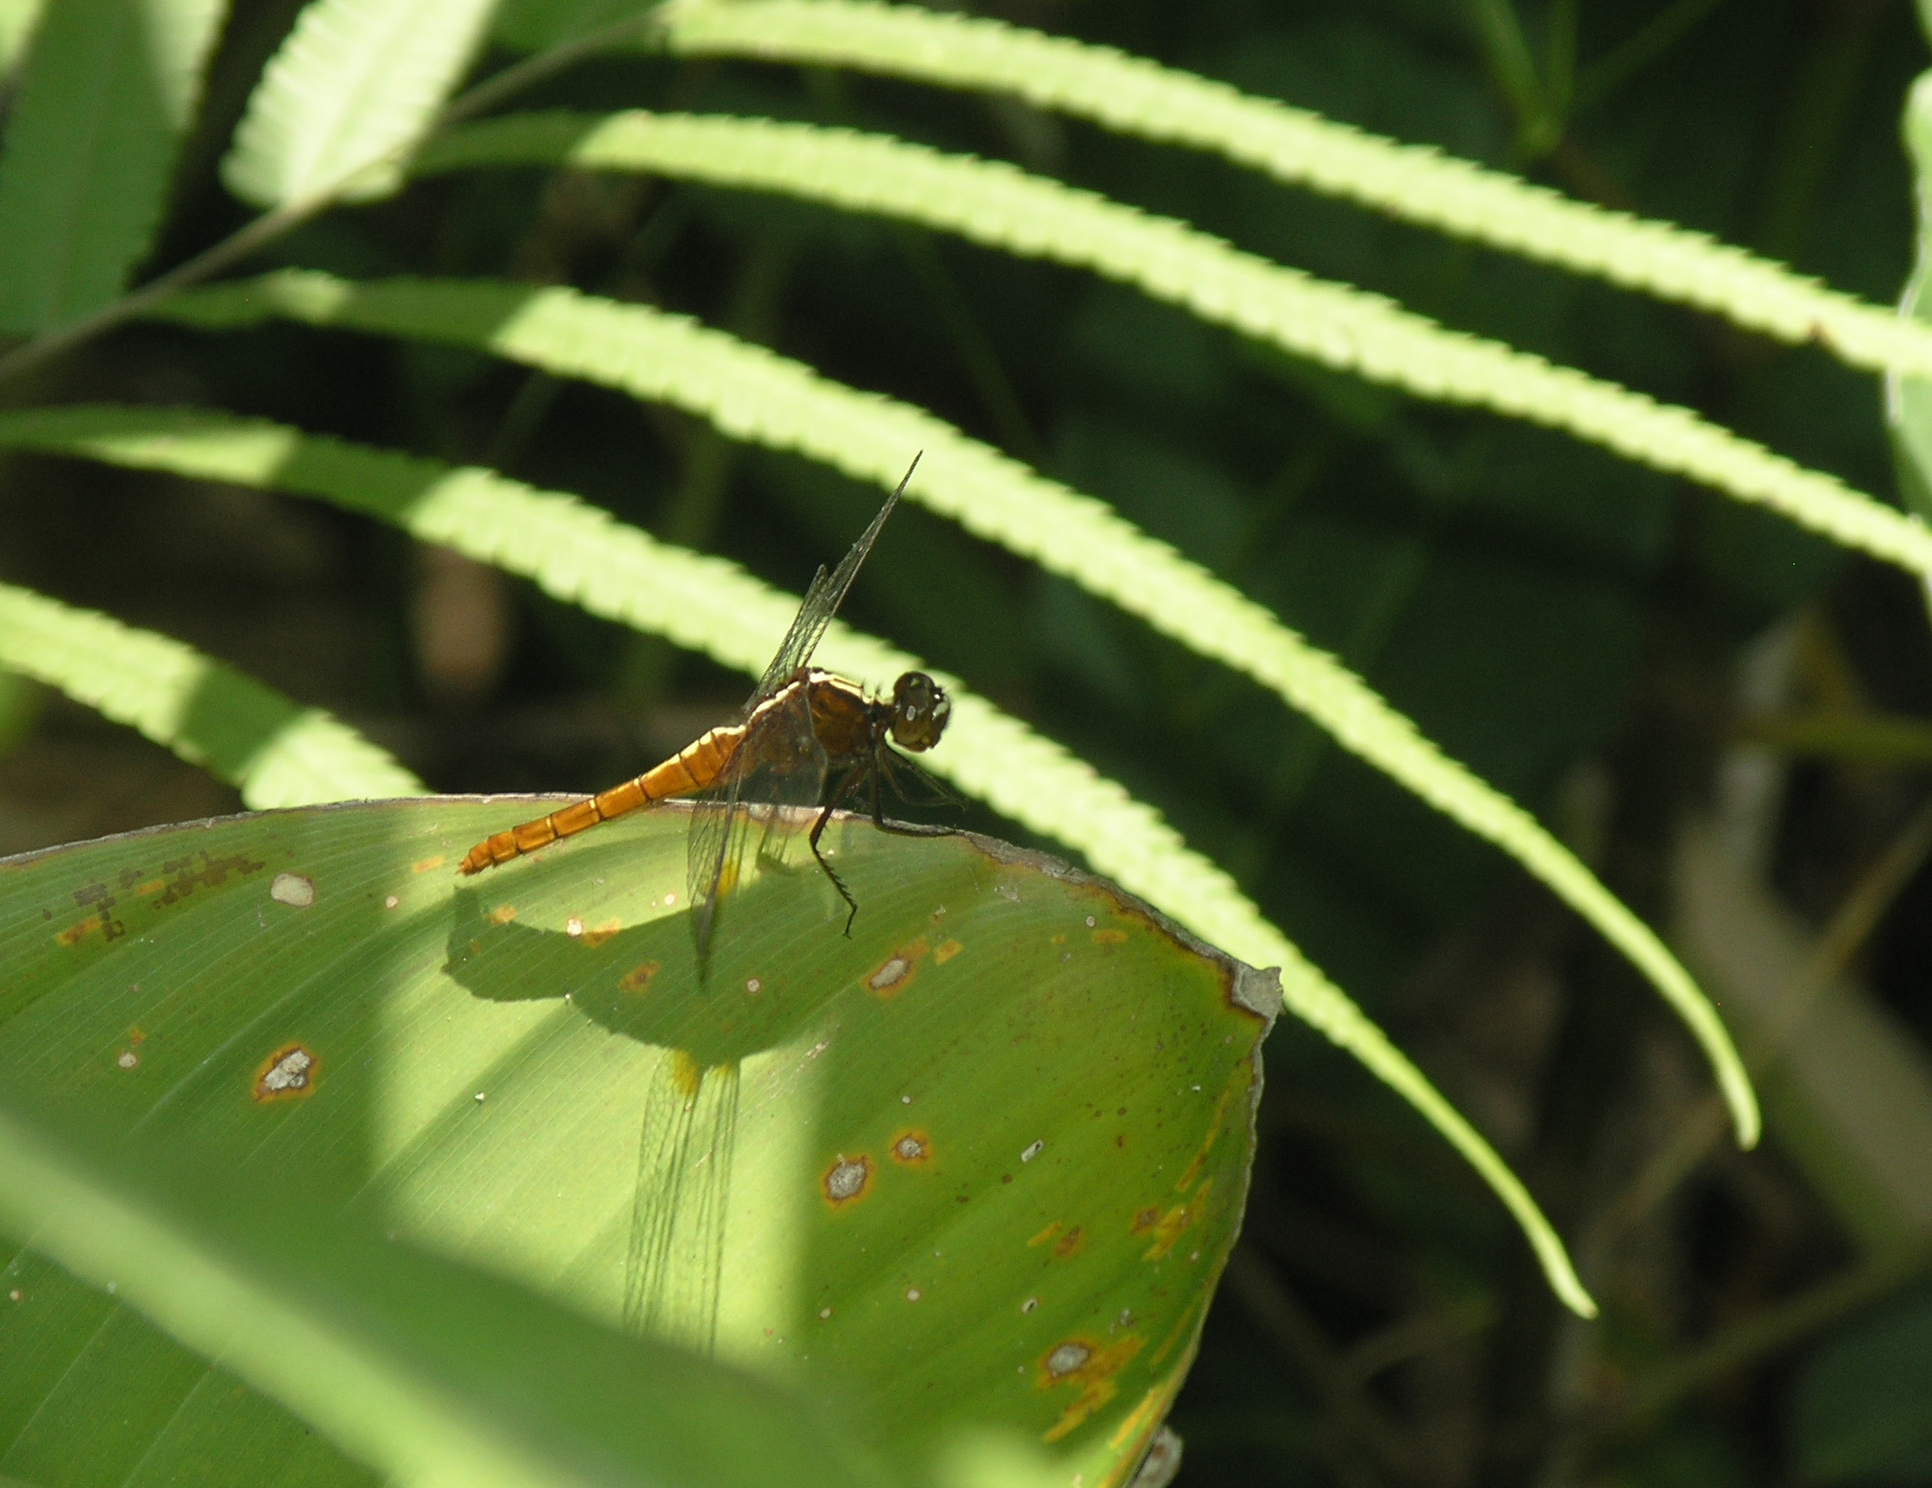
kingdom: Animalia
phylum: Arthropoda
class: Insecta
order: Odonata
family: Libellulidae
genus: Rhodothemis
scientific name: Rhodothemis rufa
